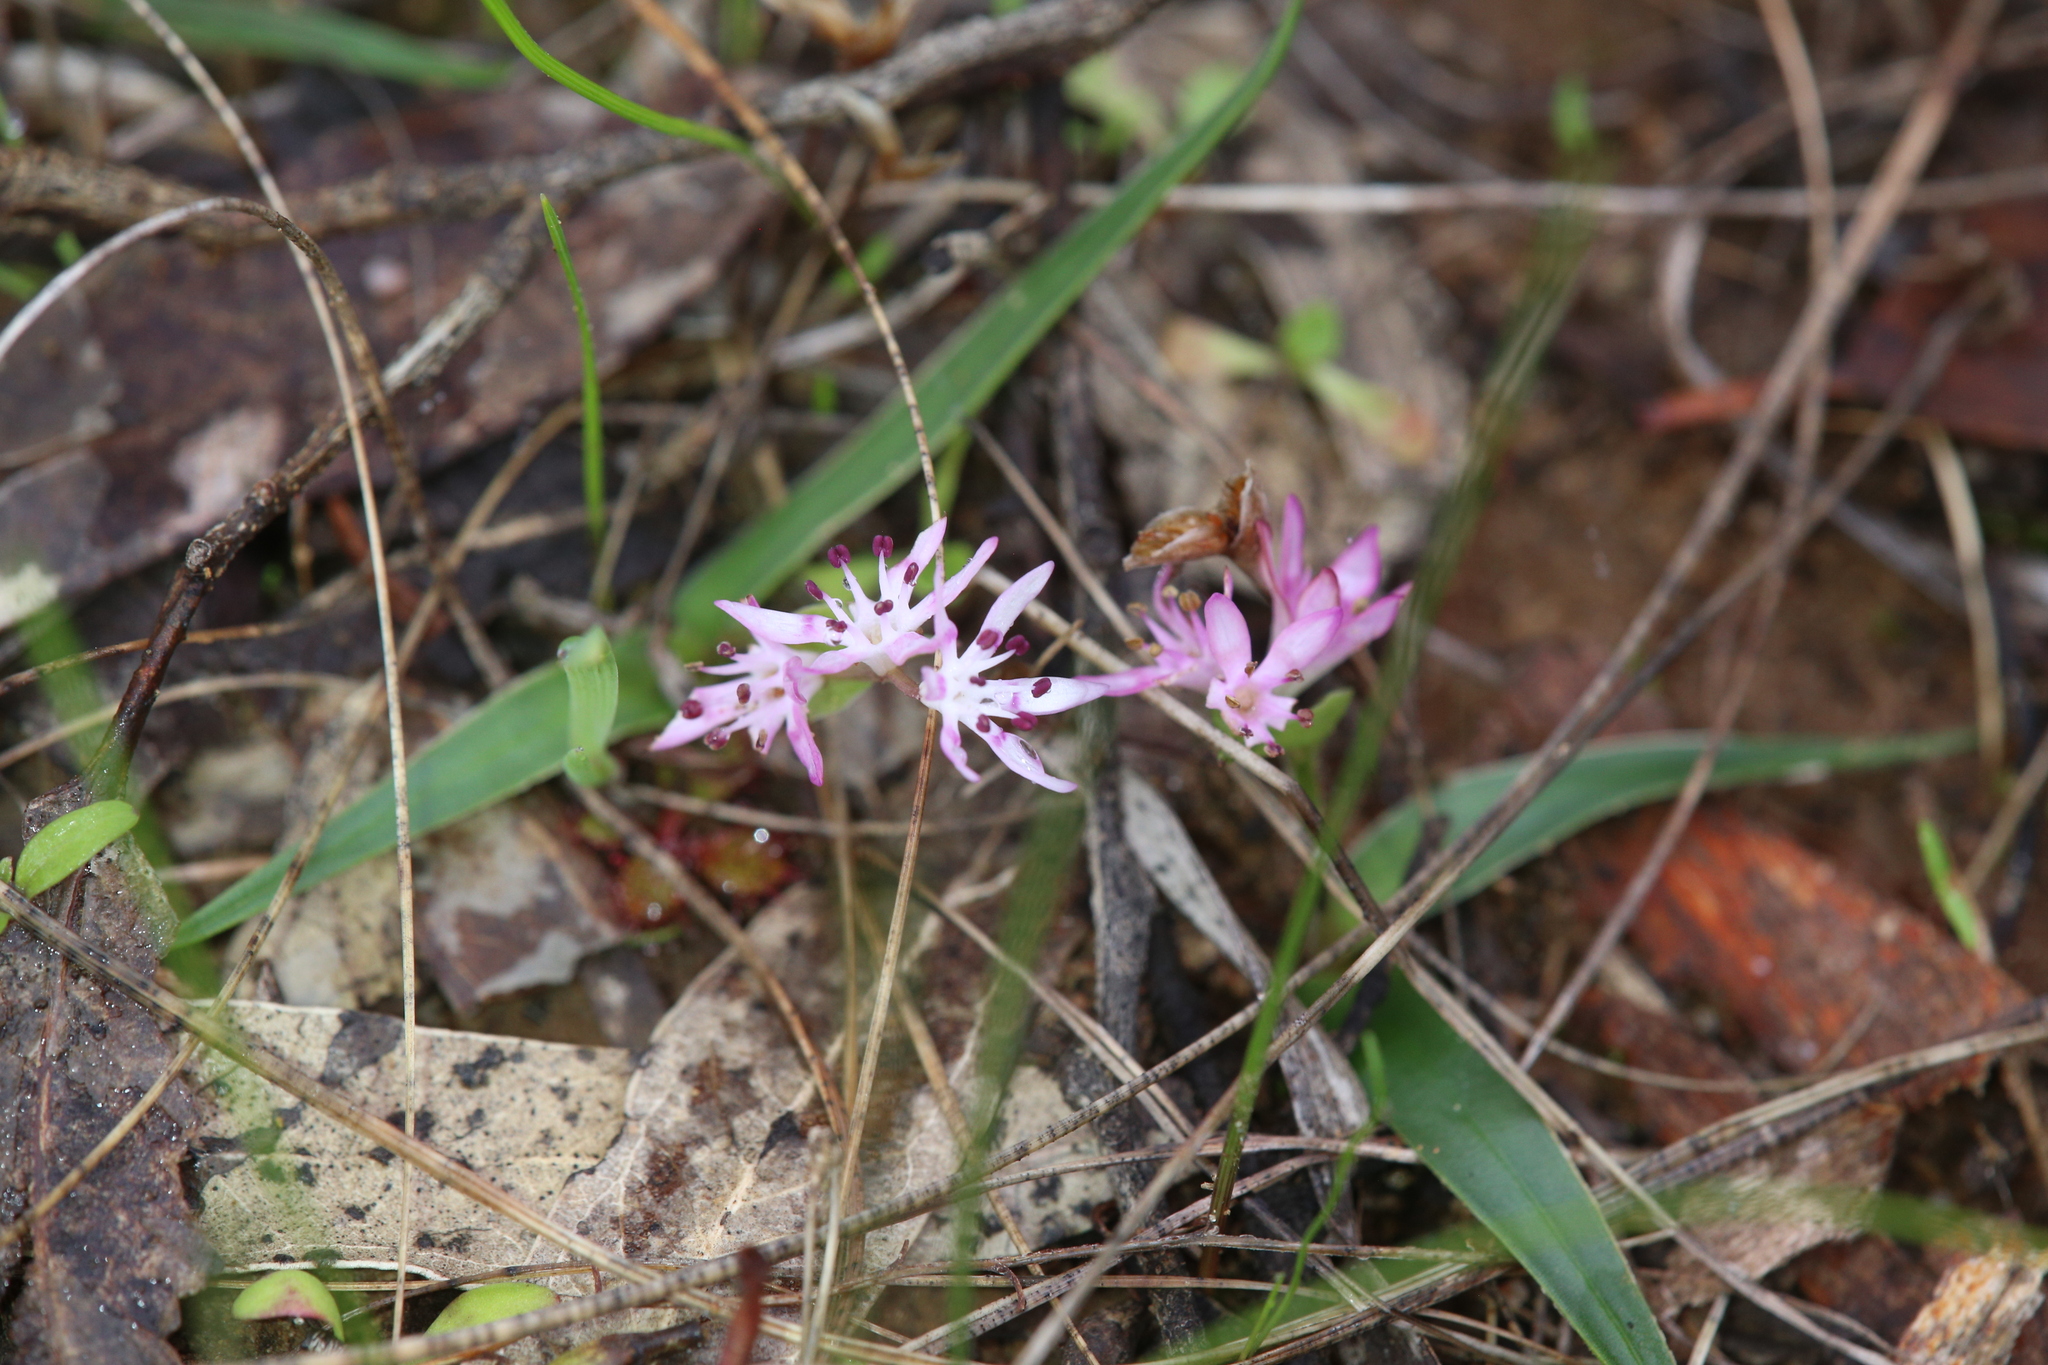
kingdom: Plantae
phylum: Tracheophyta
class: Liliopsida
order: Liliales
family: Colchicaceae
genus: Wurmbea
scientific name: Wurmbea drummondii
